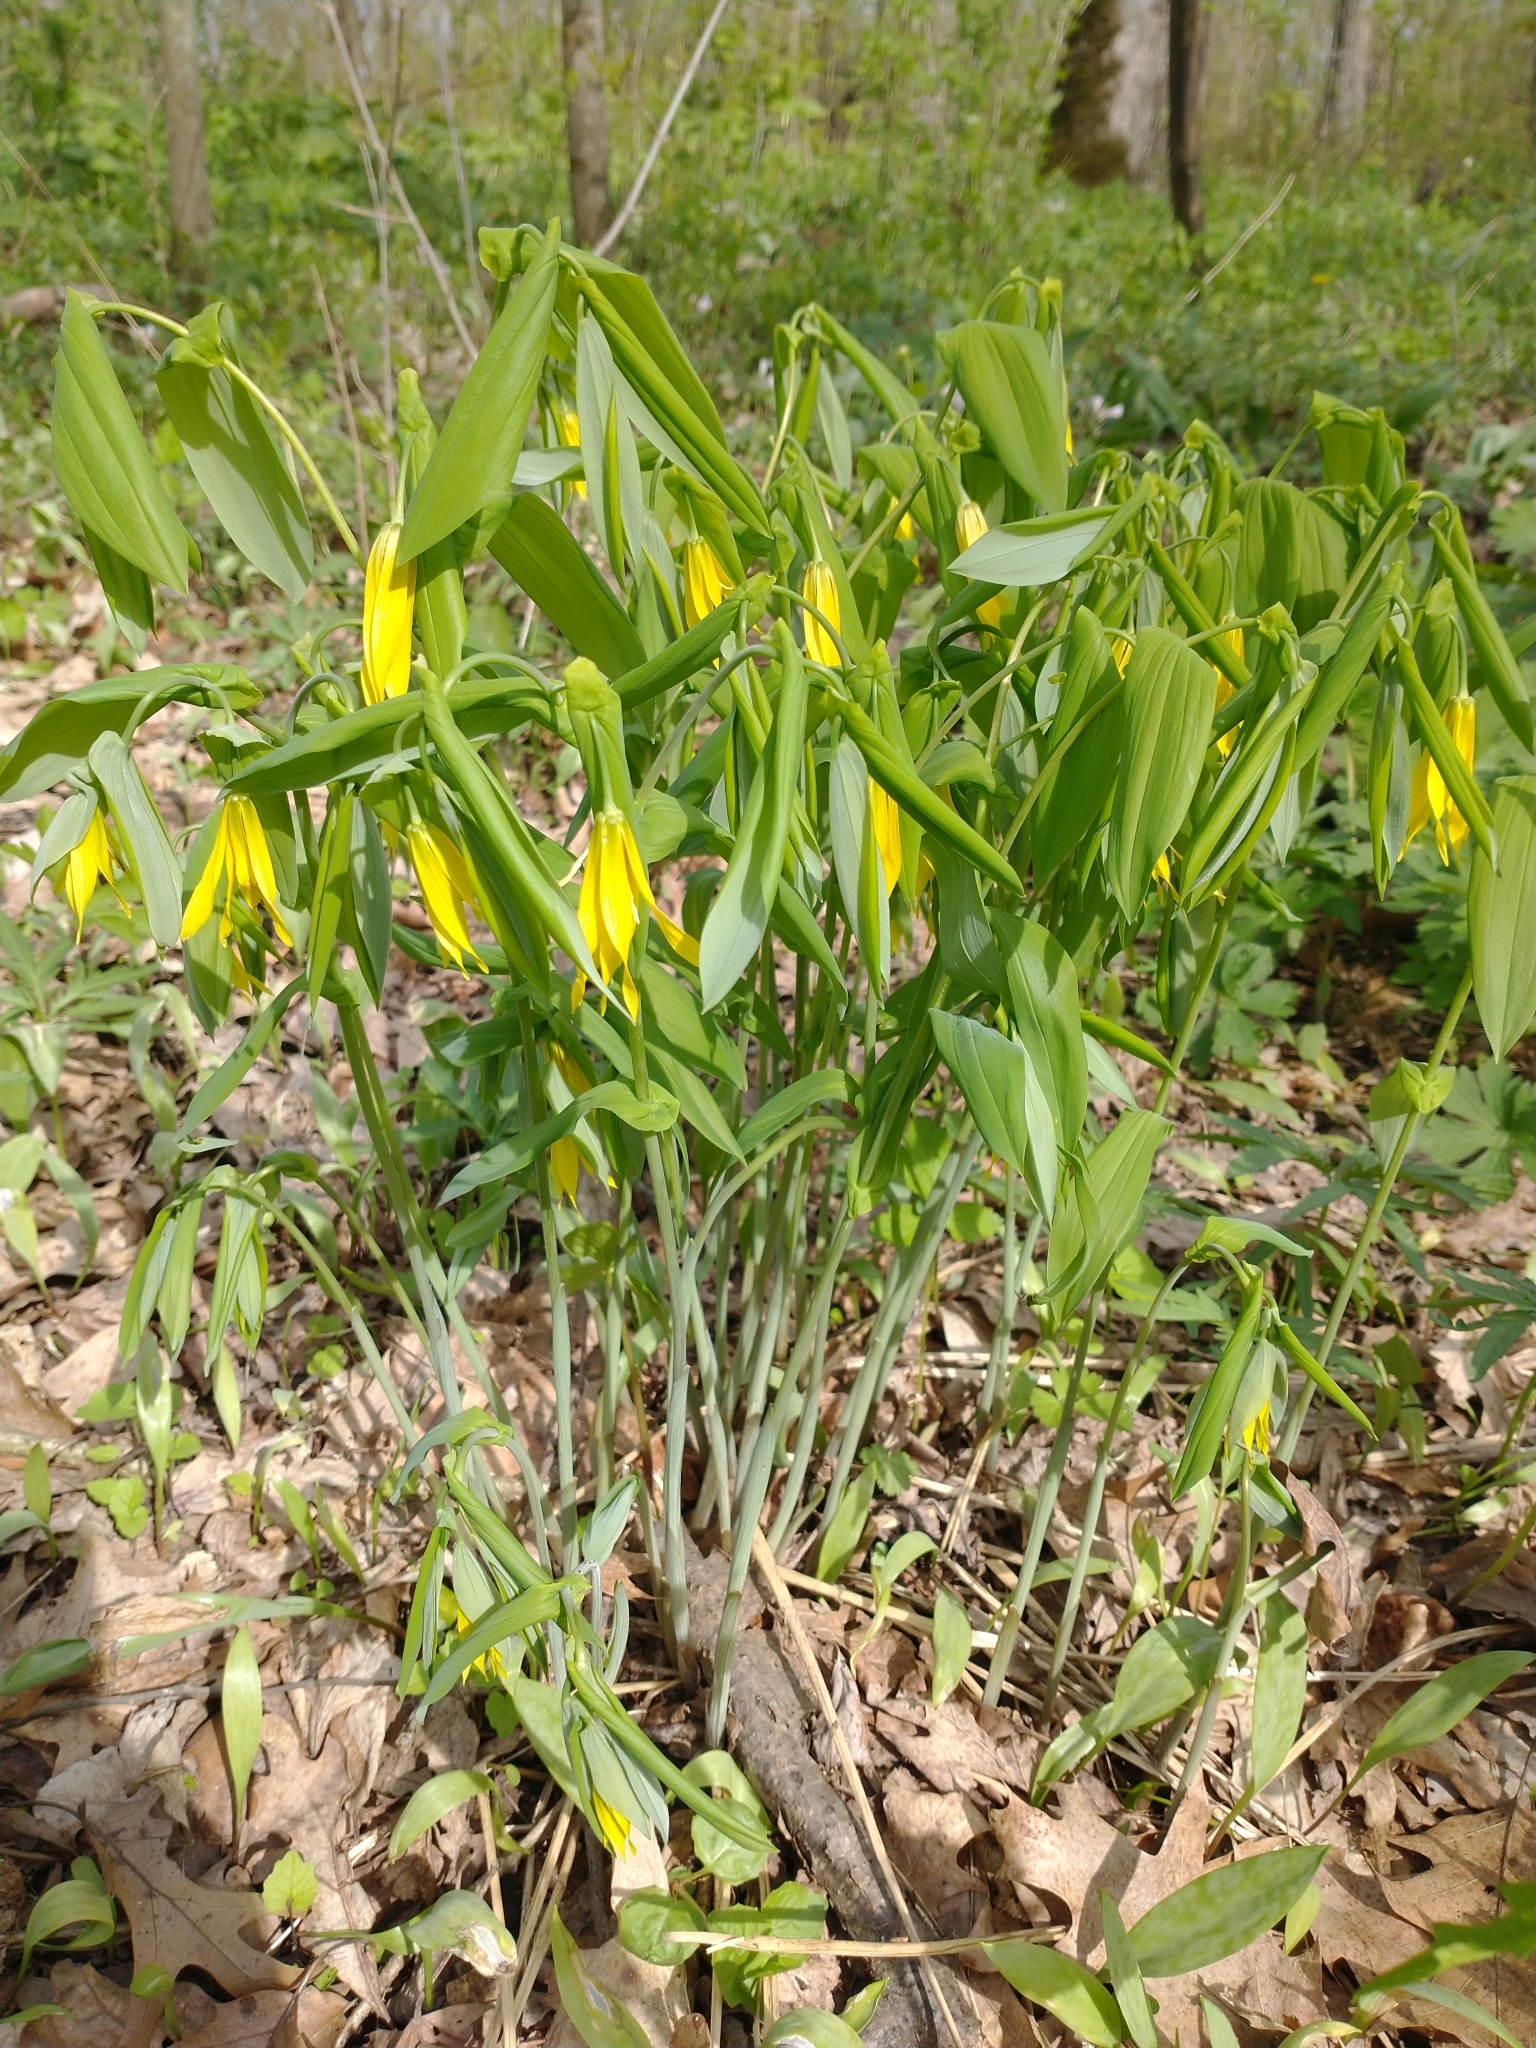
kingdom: Plantae
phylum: Tracheophyta
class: Liliopsida
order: Liliales
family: Colchicaceae
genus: Uvularia
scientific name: Uvularia grandiflora
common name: Bellwort
